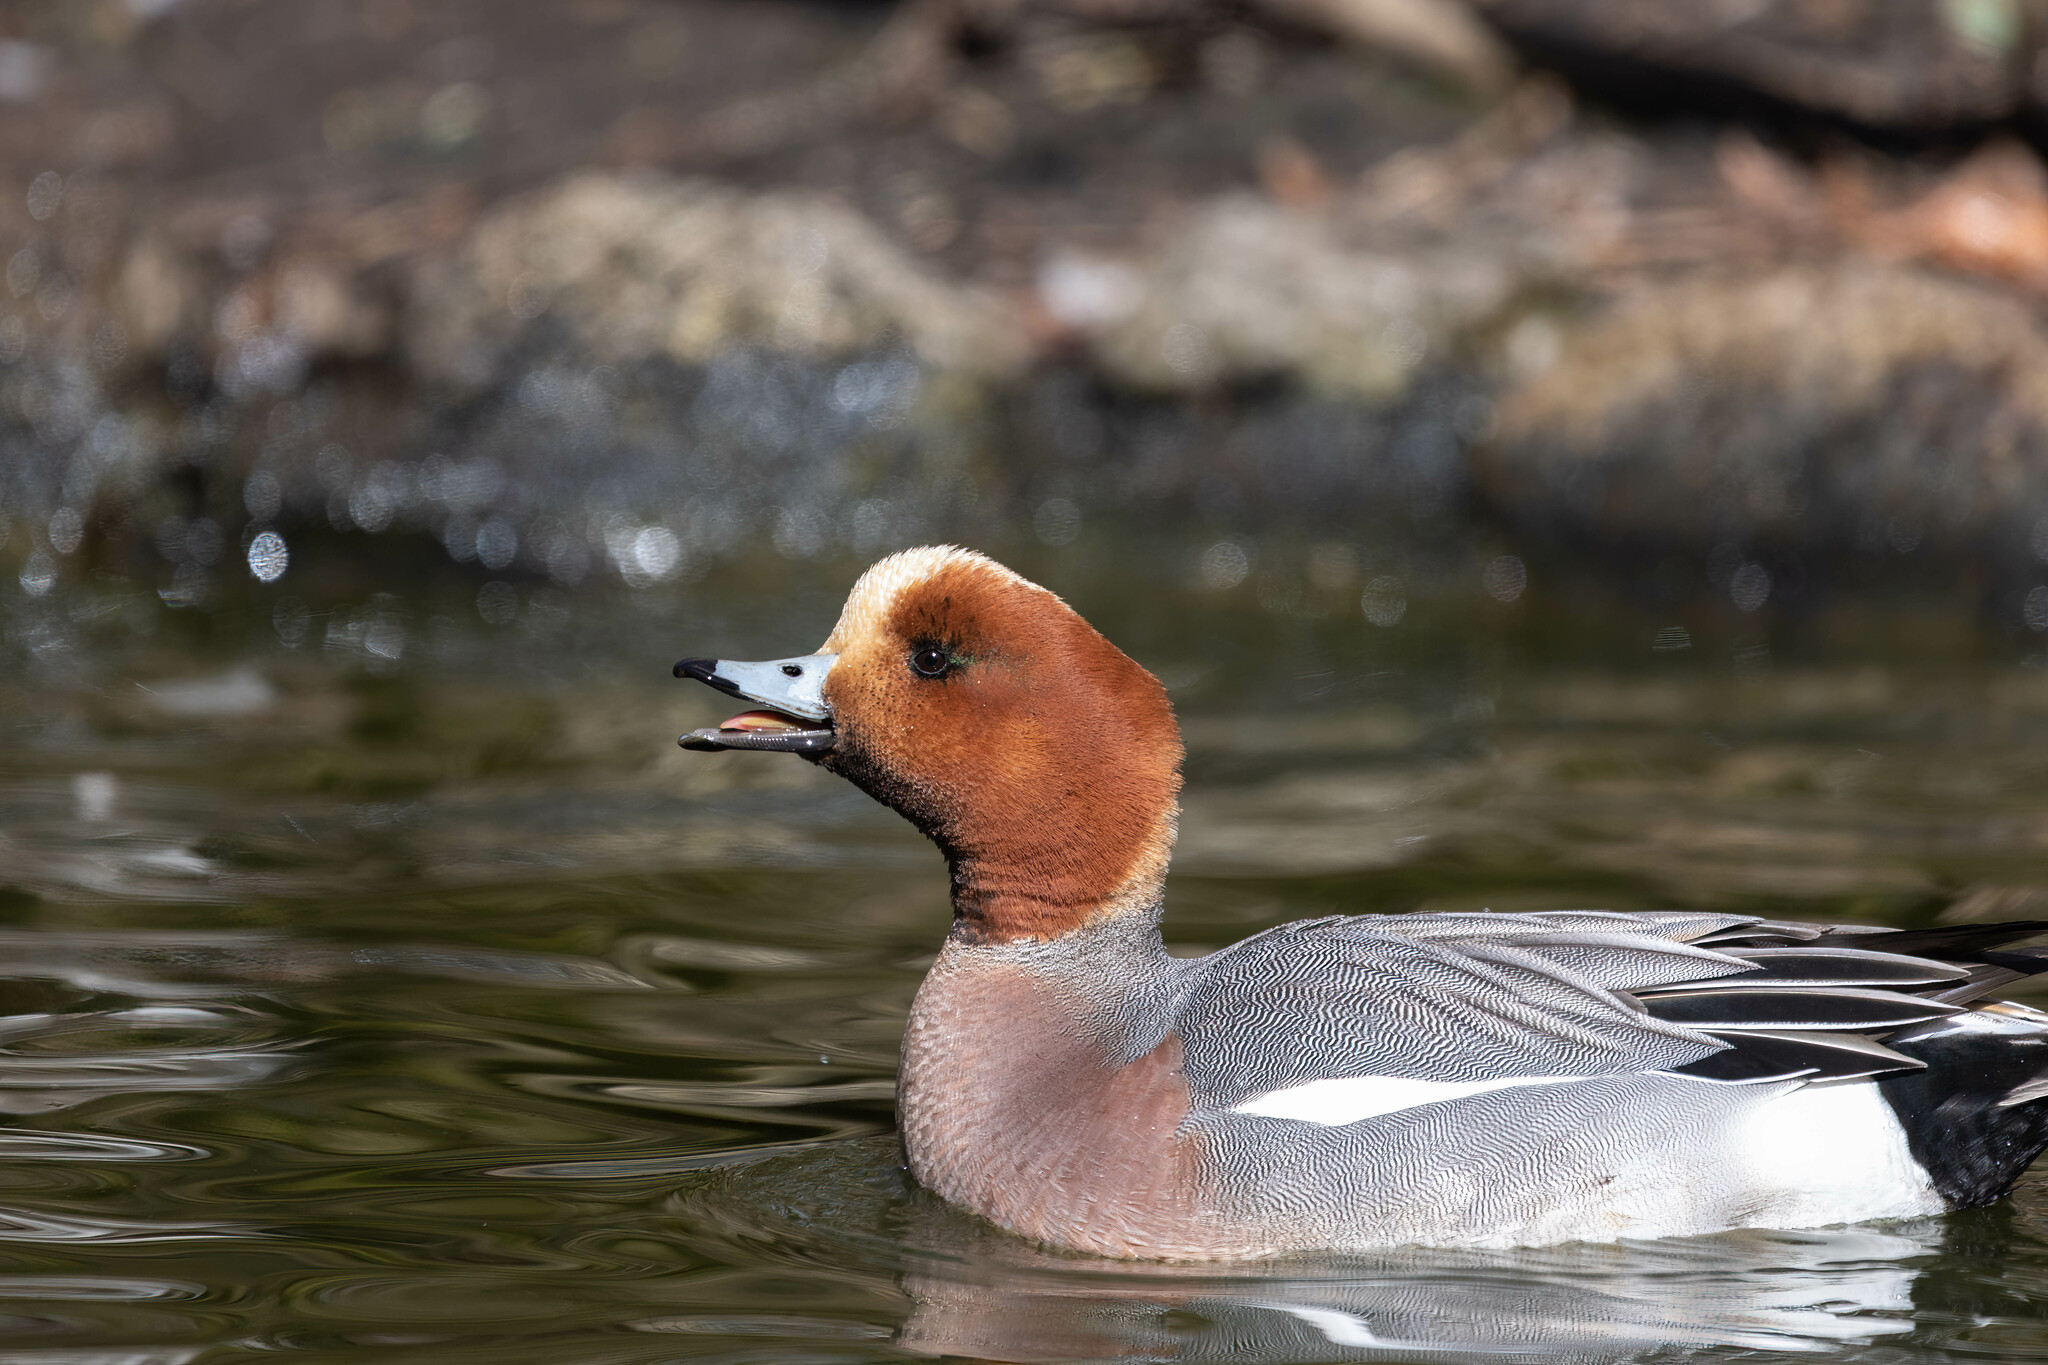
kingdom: Animalia
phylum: Chordata
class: Aves
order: Anseriformes
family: Anatidae
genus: Mareca
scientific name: Mareca penelope
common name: Eurasian wigeon
